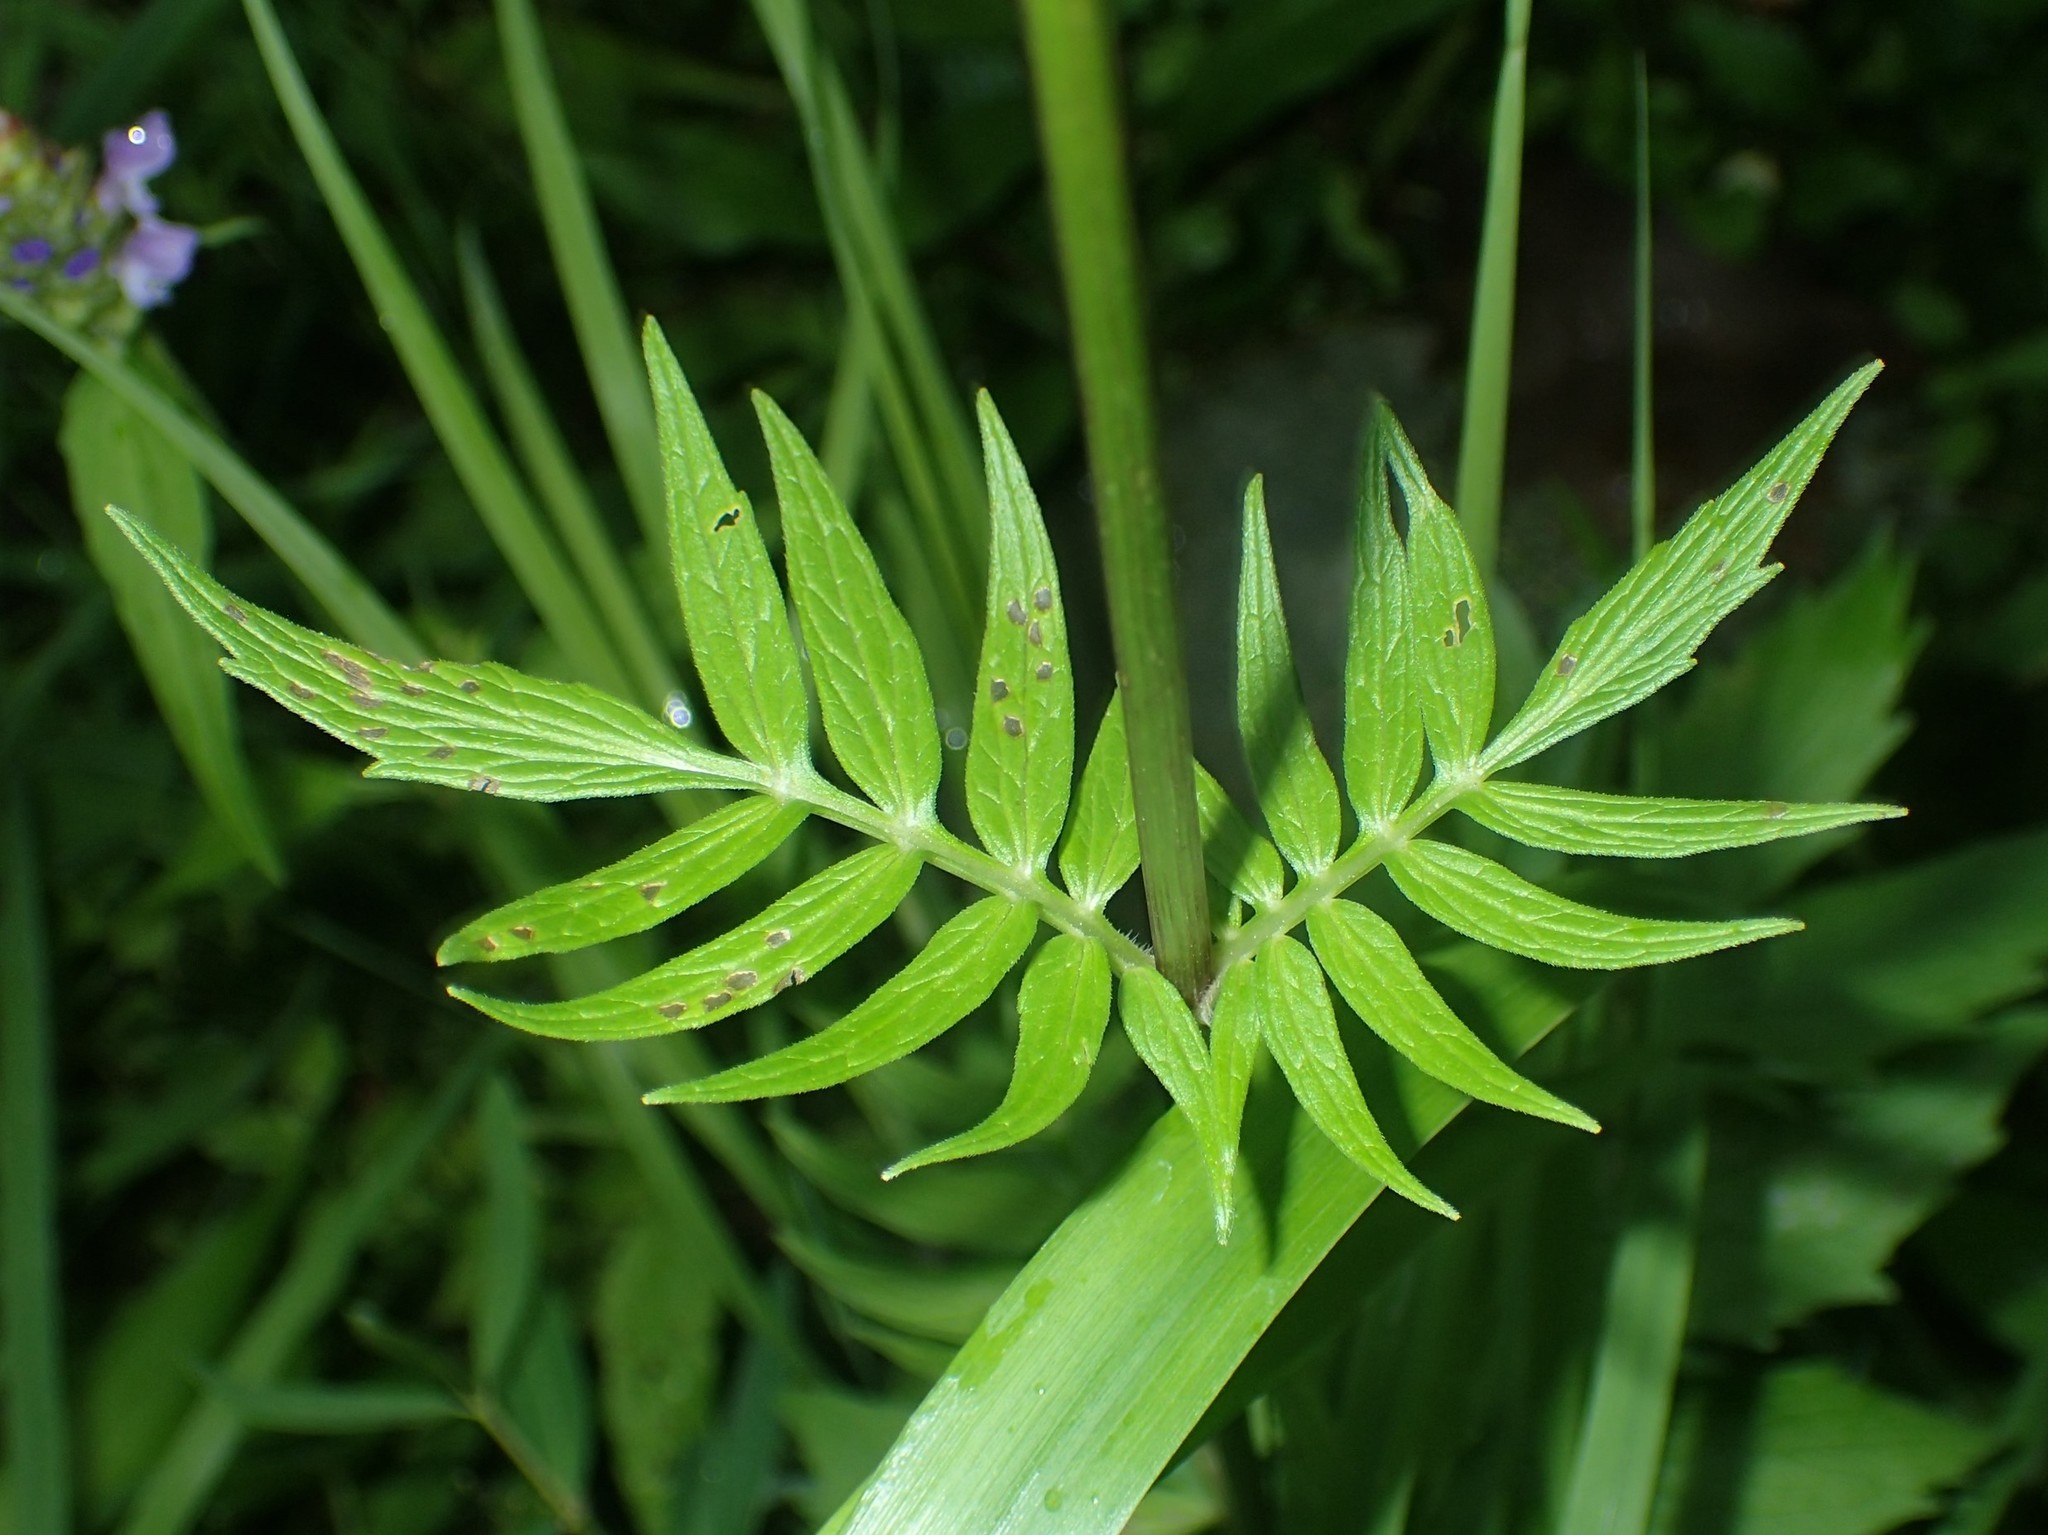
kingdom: Plantae
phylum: Tracheophyta
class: Magnoliopsida
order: Dipsacales
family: Caprifoliaceae
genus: Valeriana
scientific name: Valeriana officinalis
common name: Common valerian
